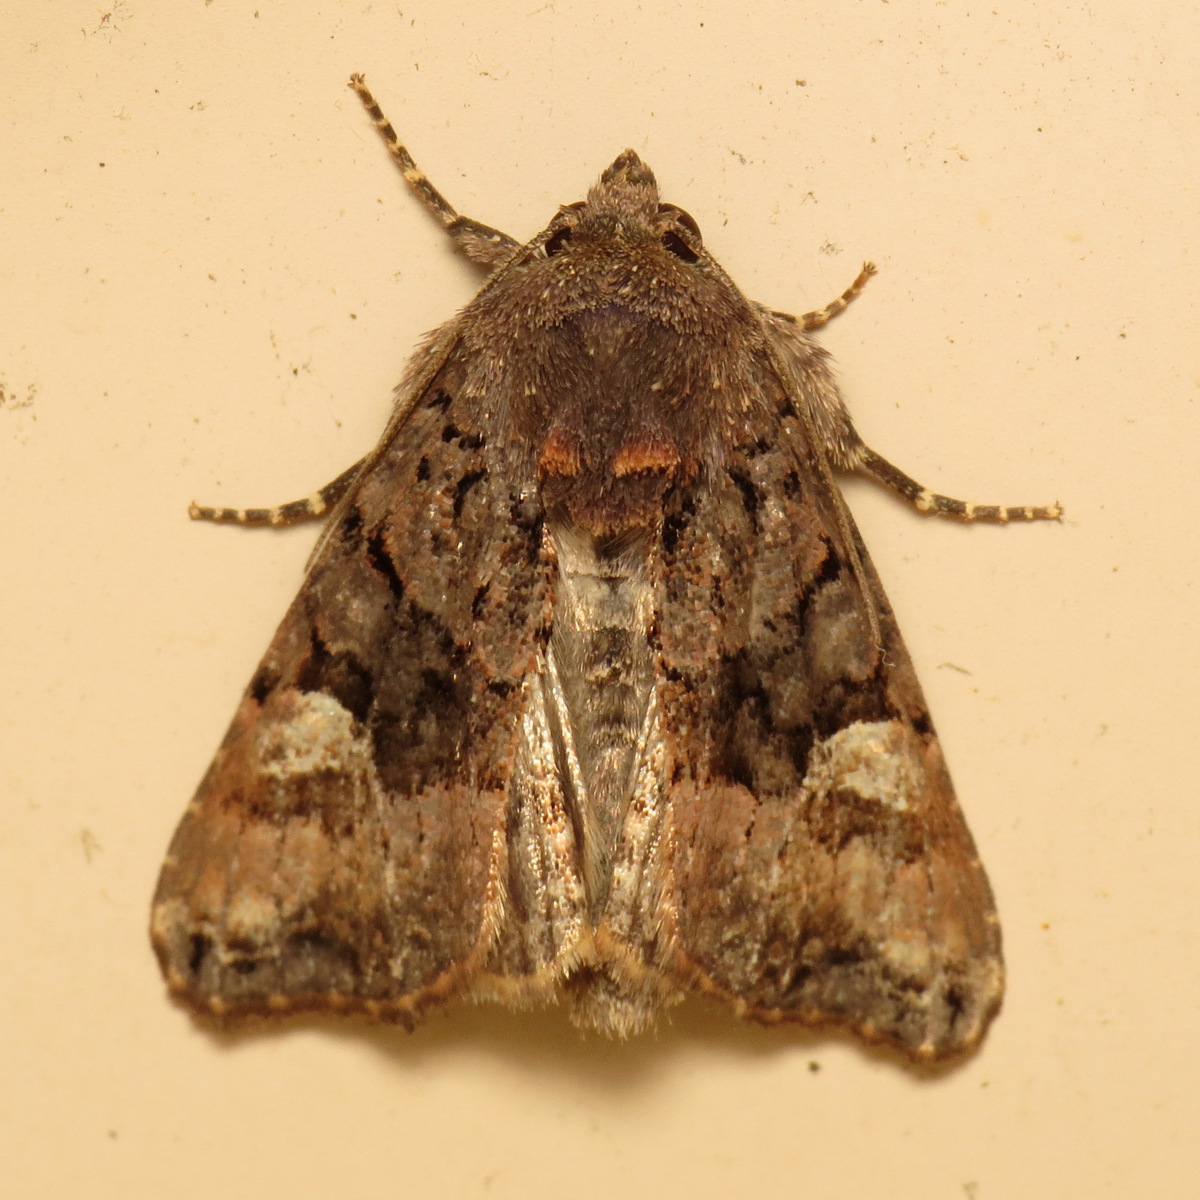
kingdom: Animalia
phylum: Arthropoda
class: Insecta
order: Lepidoptera
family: Noctuidae
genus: Euplexia
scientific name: Euplexia benesimilis
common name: American angle shades
